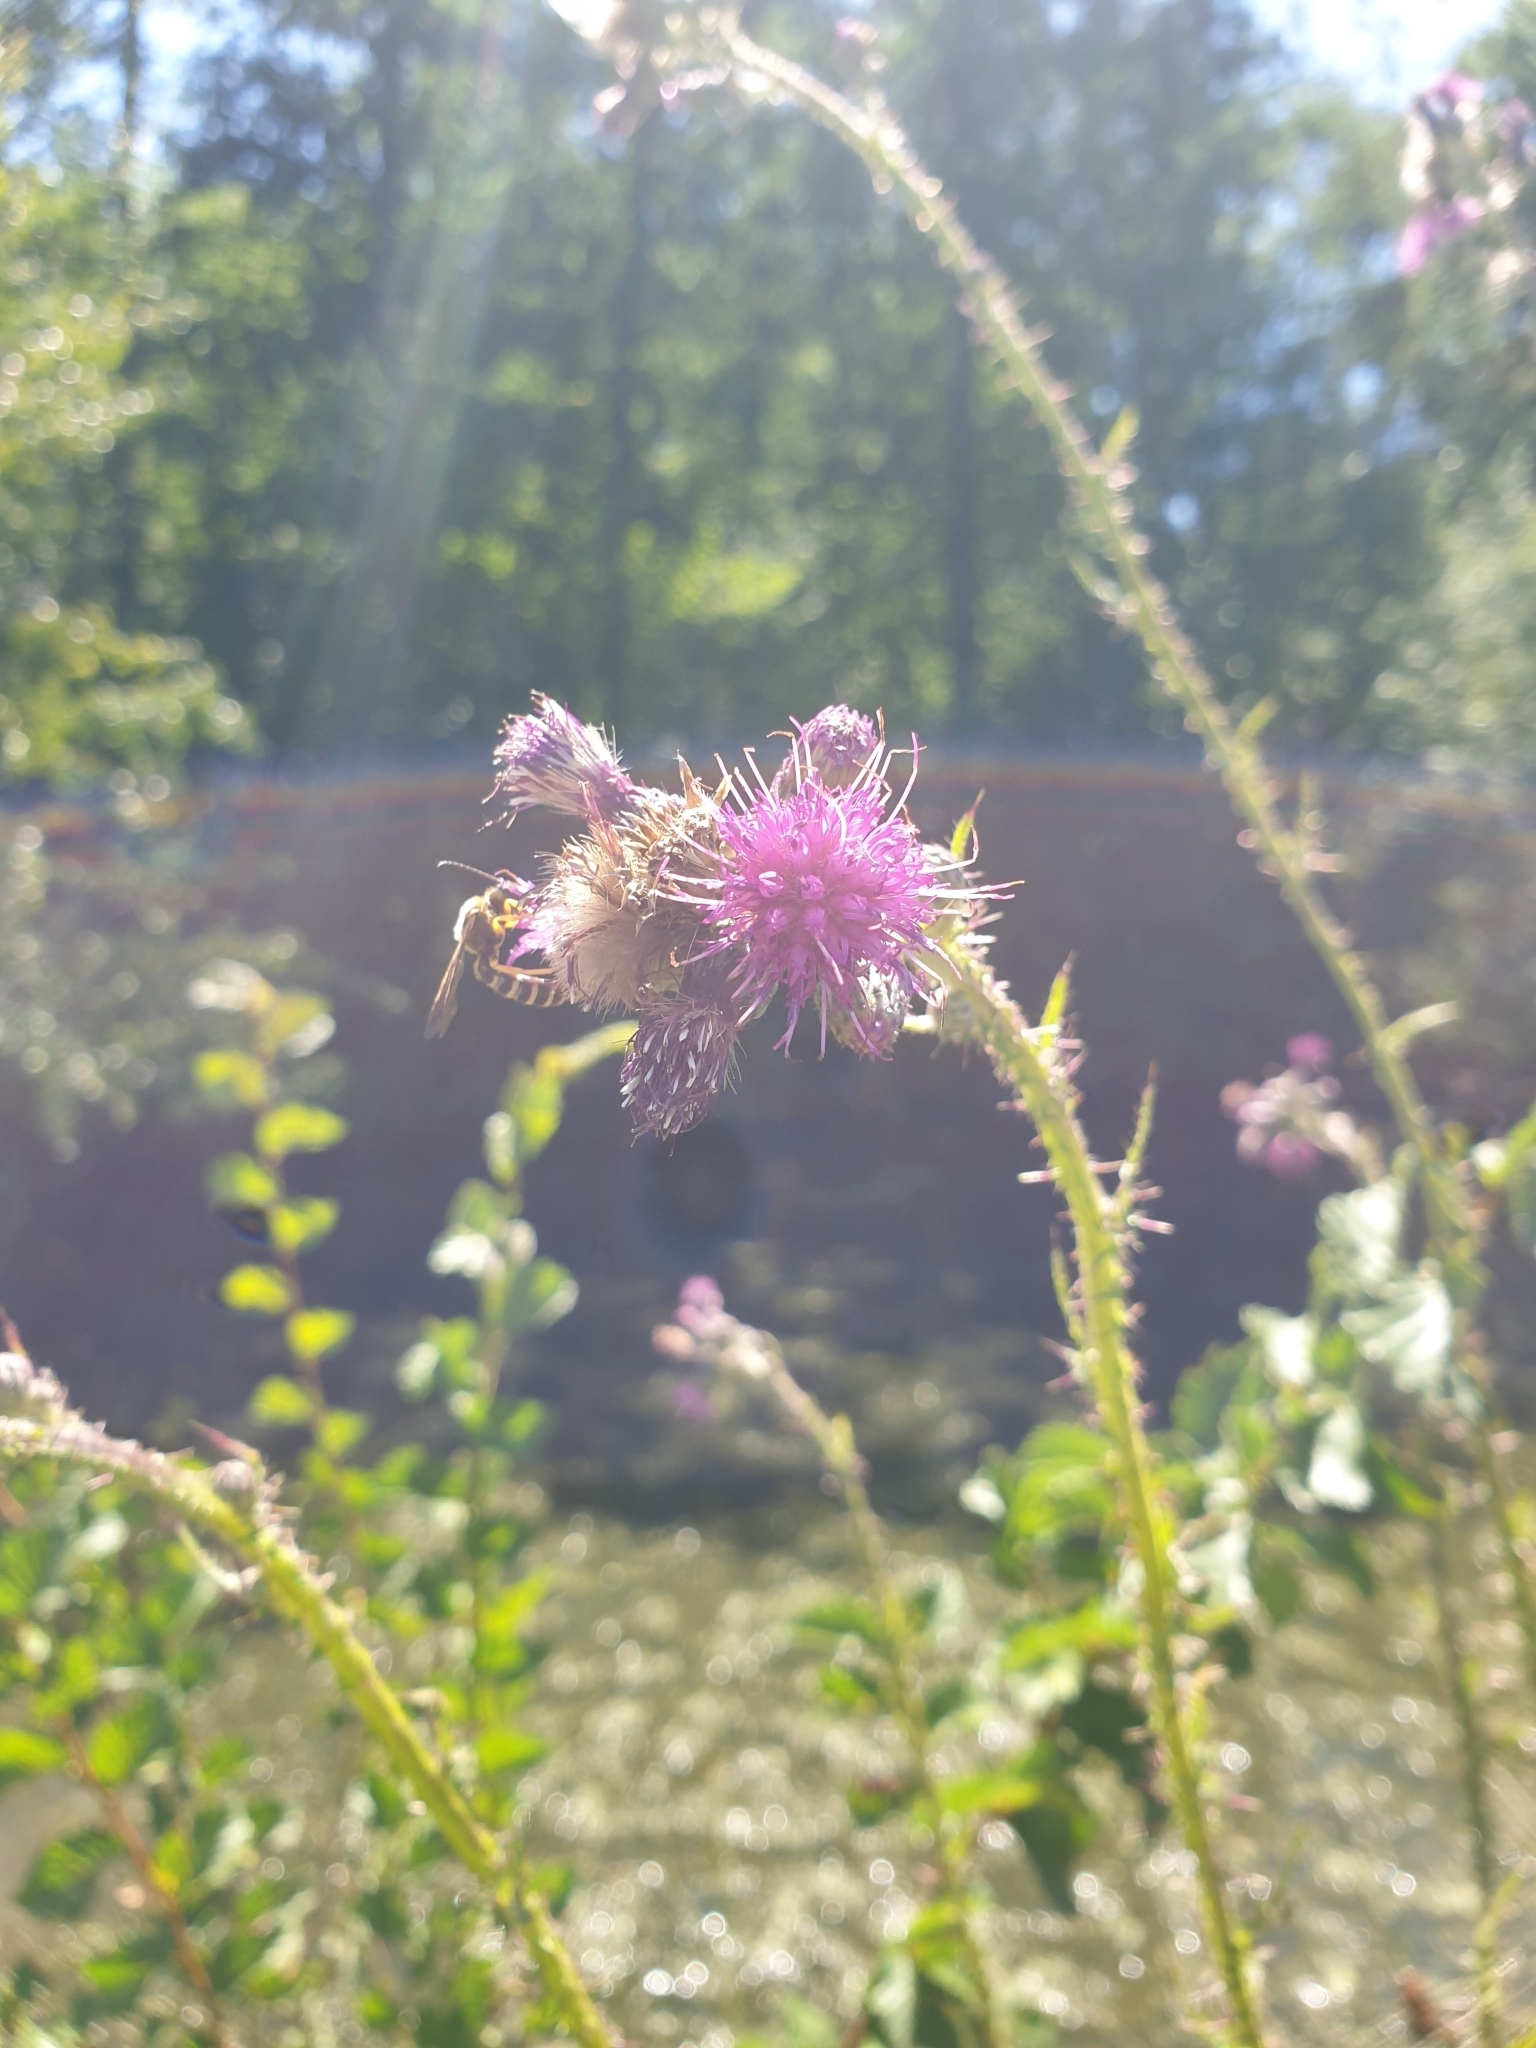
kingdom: Plantae
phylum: Tracheophyta
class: Magnoliopsida
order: Asterales
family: Asteraceae
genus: Cirsium
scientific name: Cirsium palustre
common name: Marsh thistle
